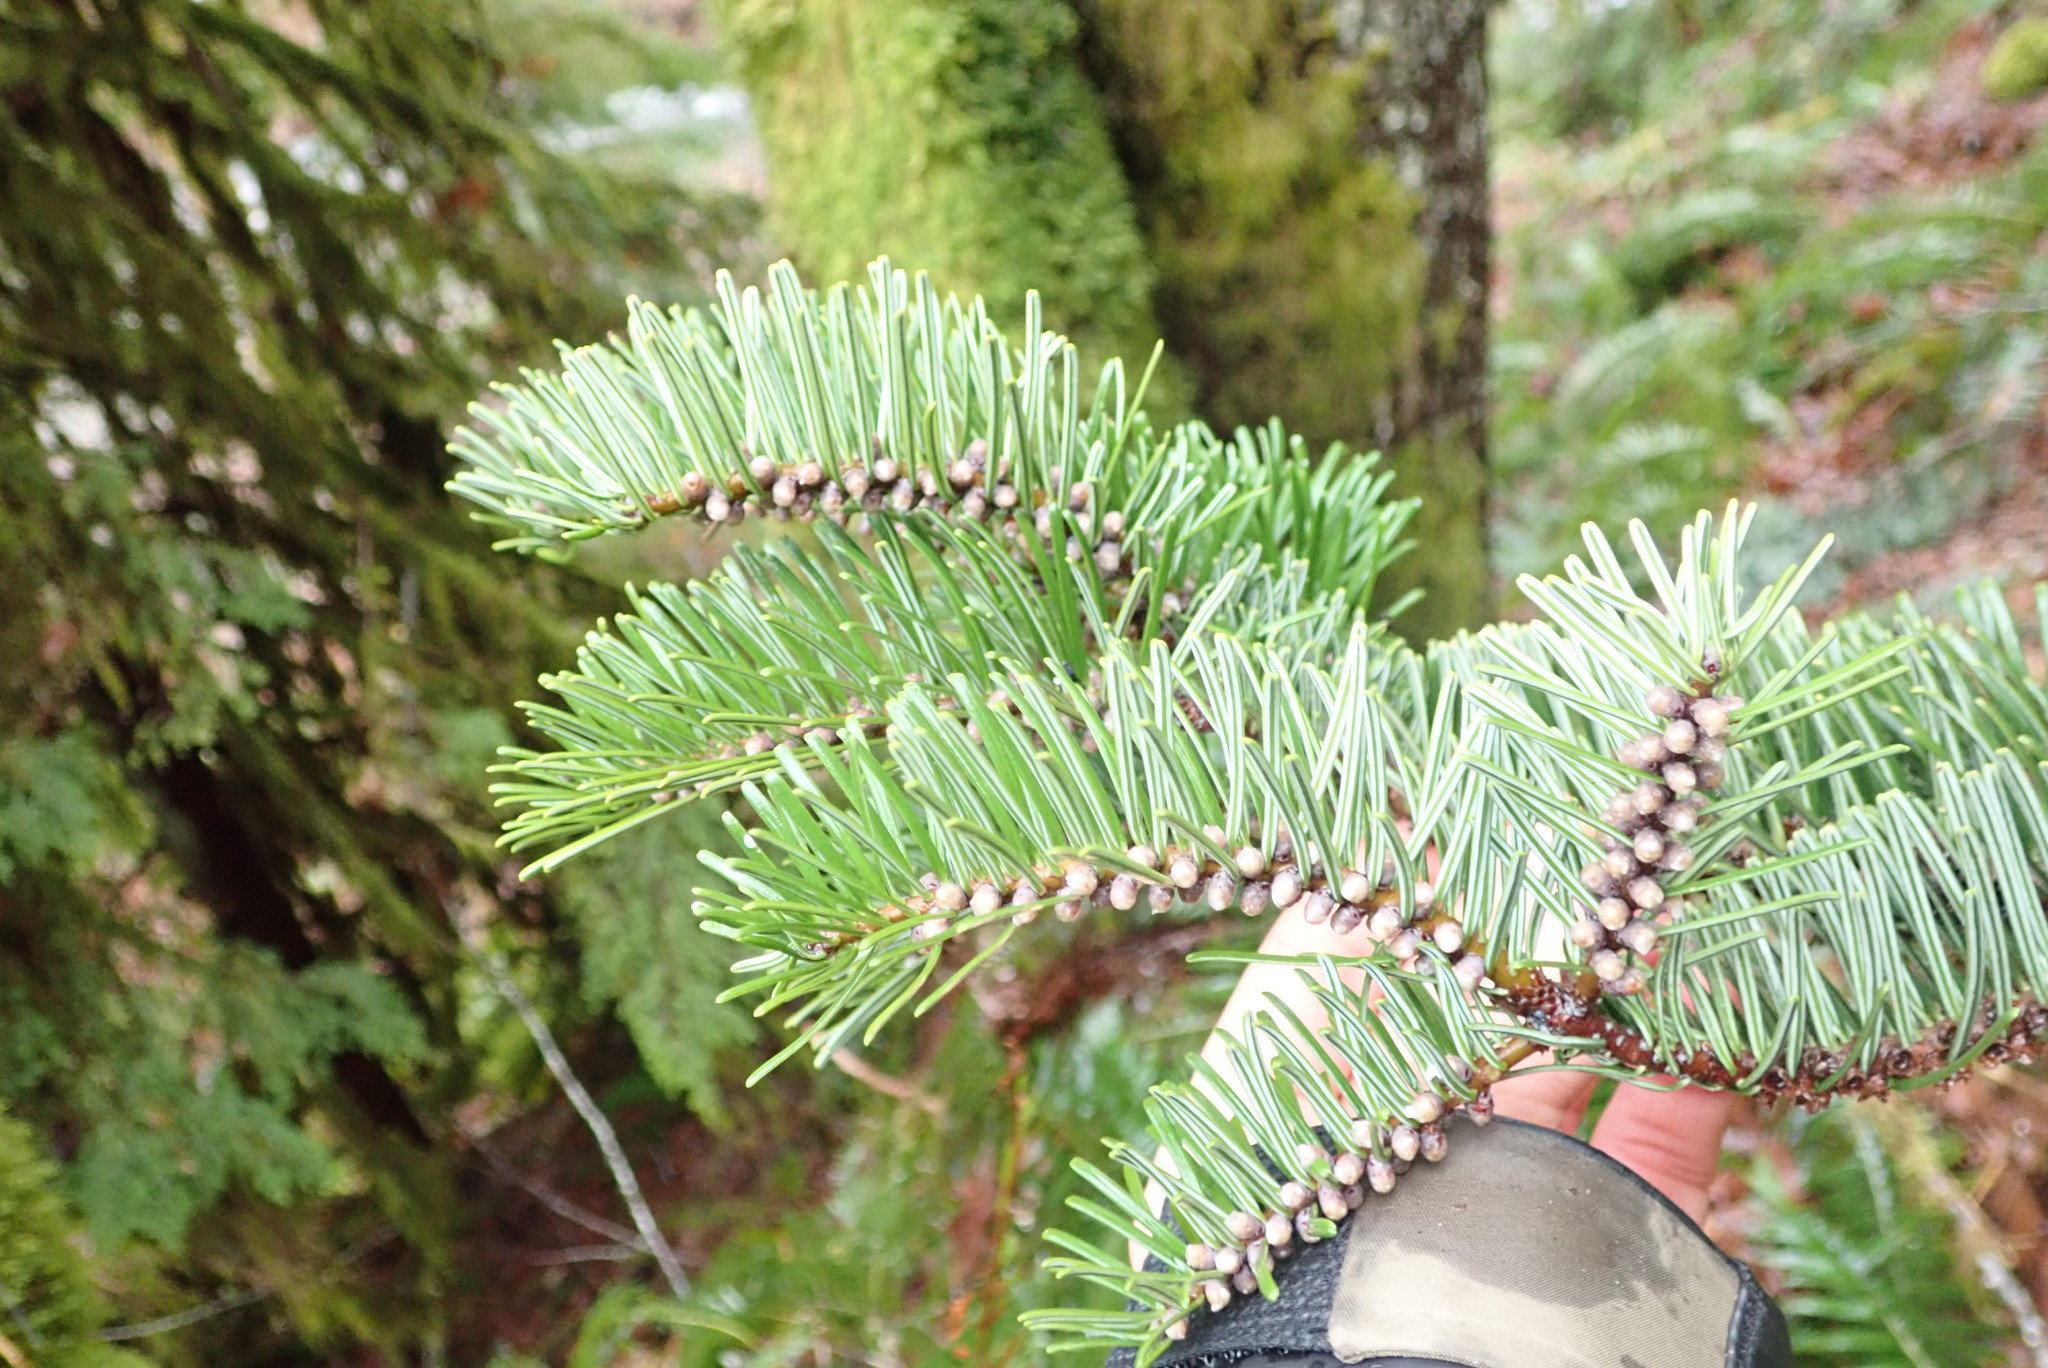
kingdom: Plantae
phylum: Tracheophyta
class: Pinopsida
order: Pinales
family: Pinaceae
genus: Abies
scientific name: Abies grandis
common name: Giant fir
